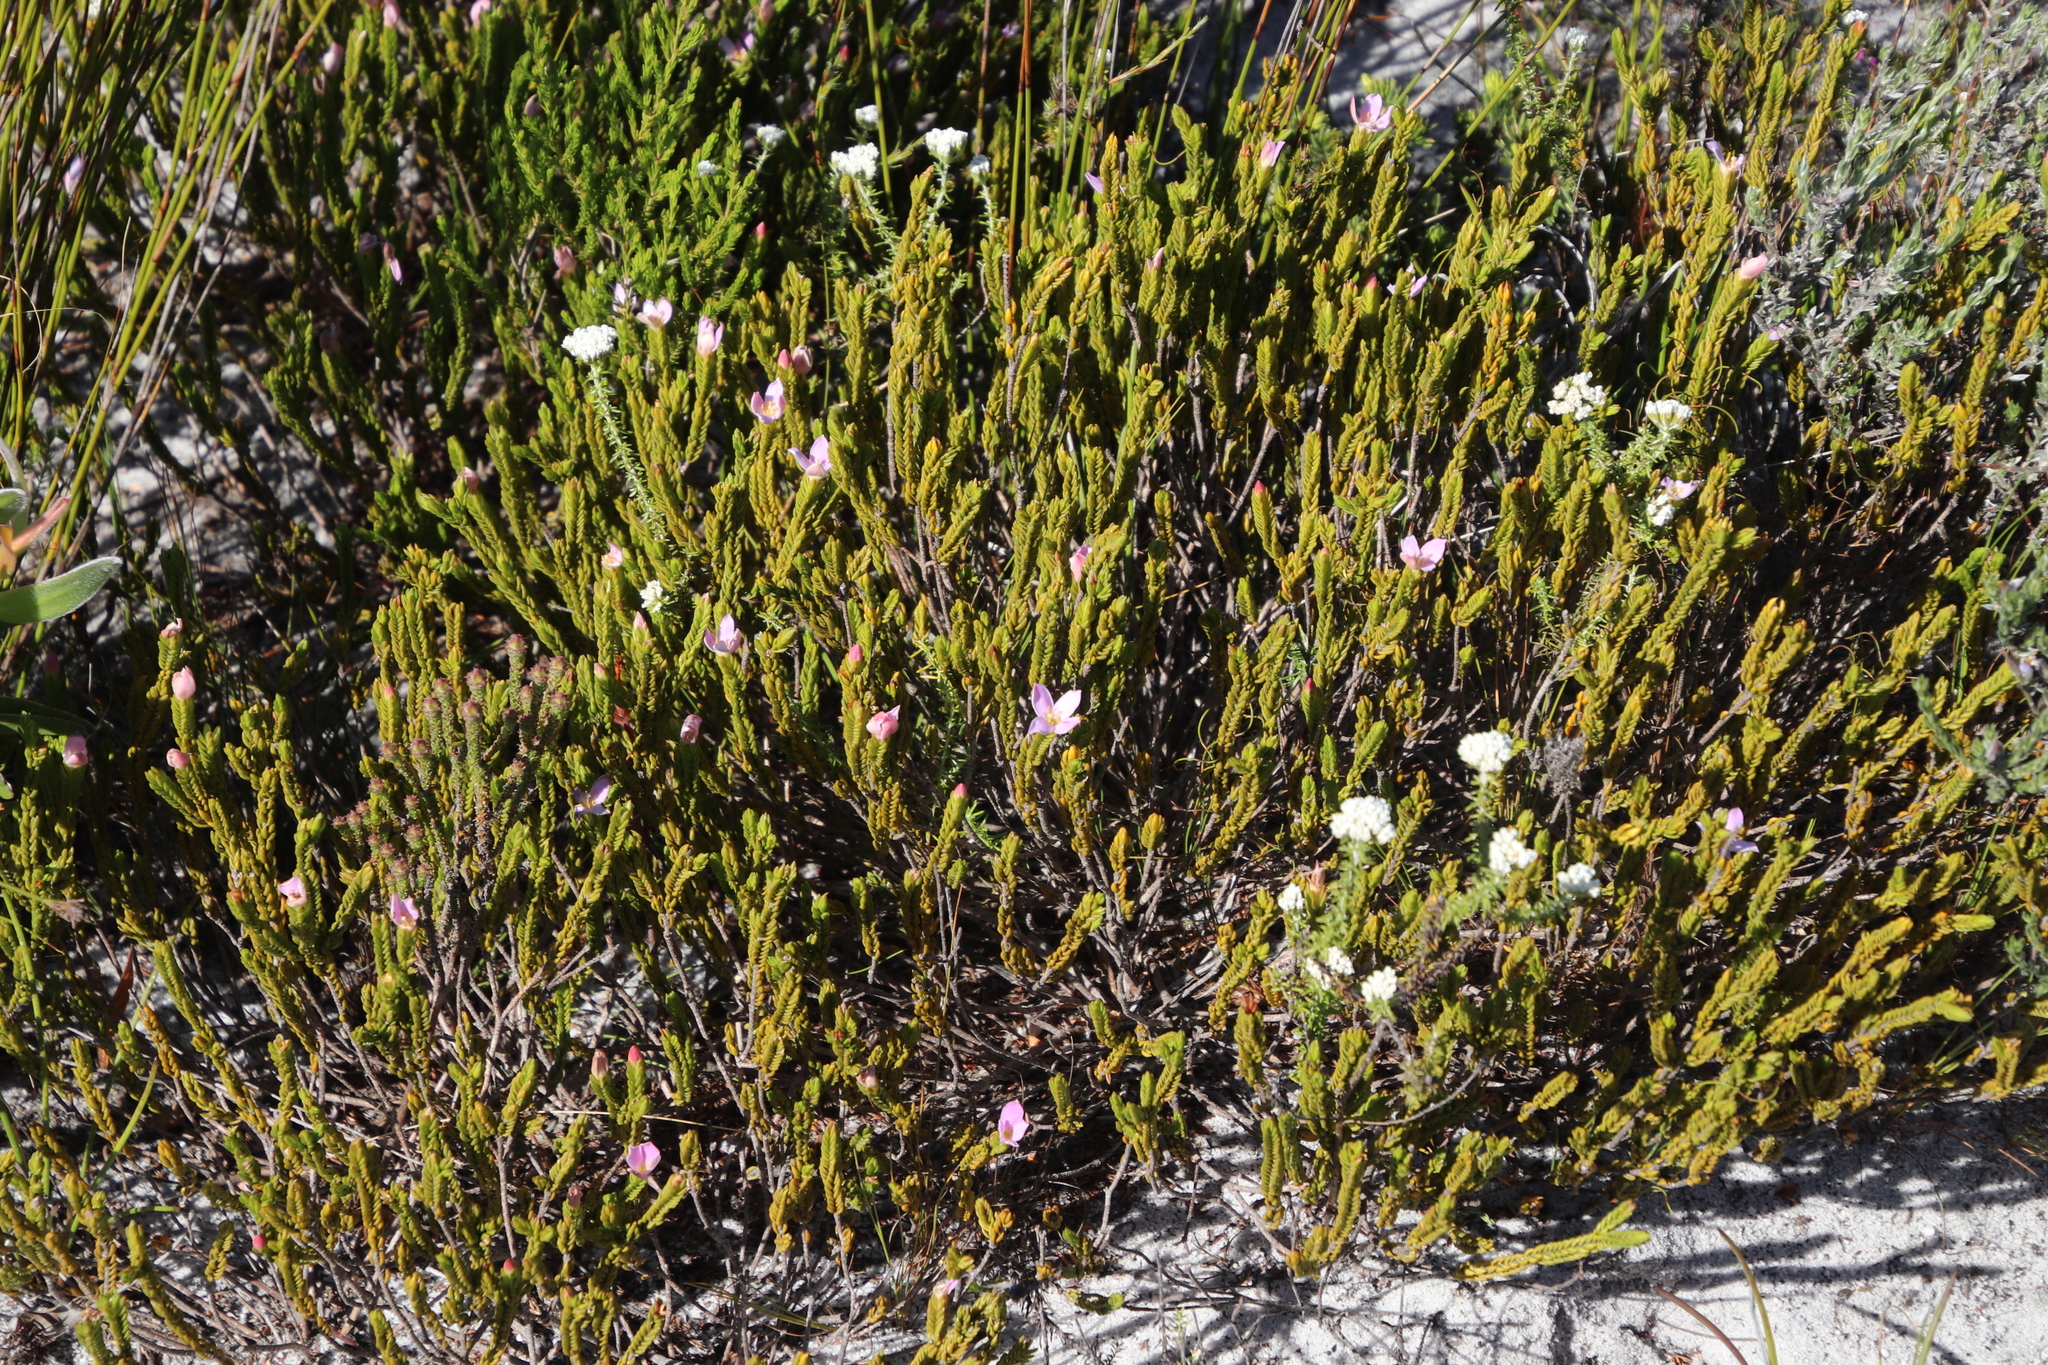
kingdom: Plantae
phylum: Tracheophyta
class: Magnoliopsida
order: Malvales
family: Thymelaeaceae
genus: Lachnaea
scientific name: Lachnaea grandiflora
